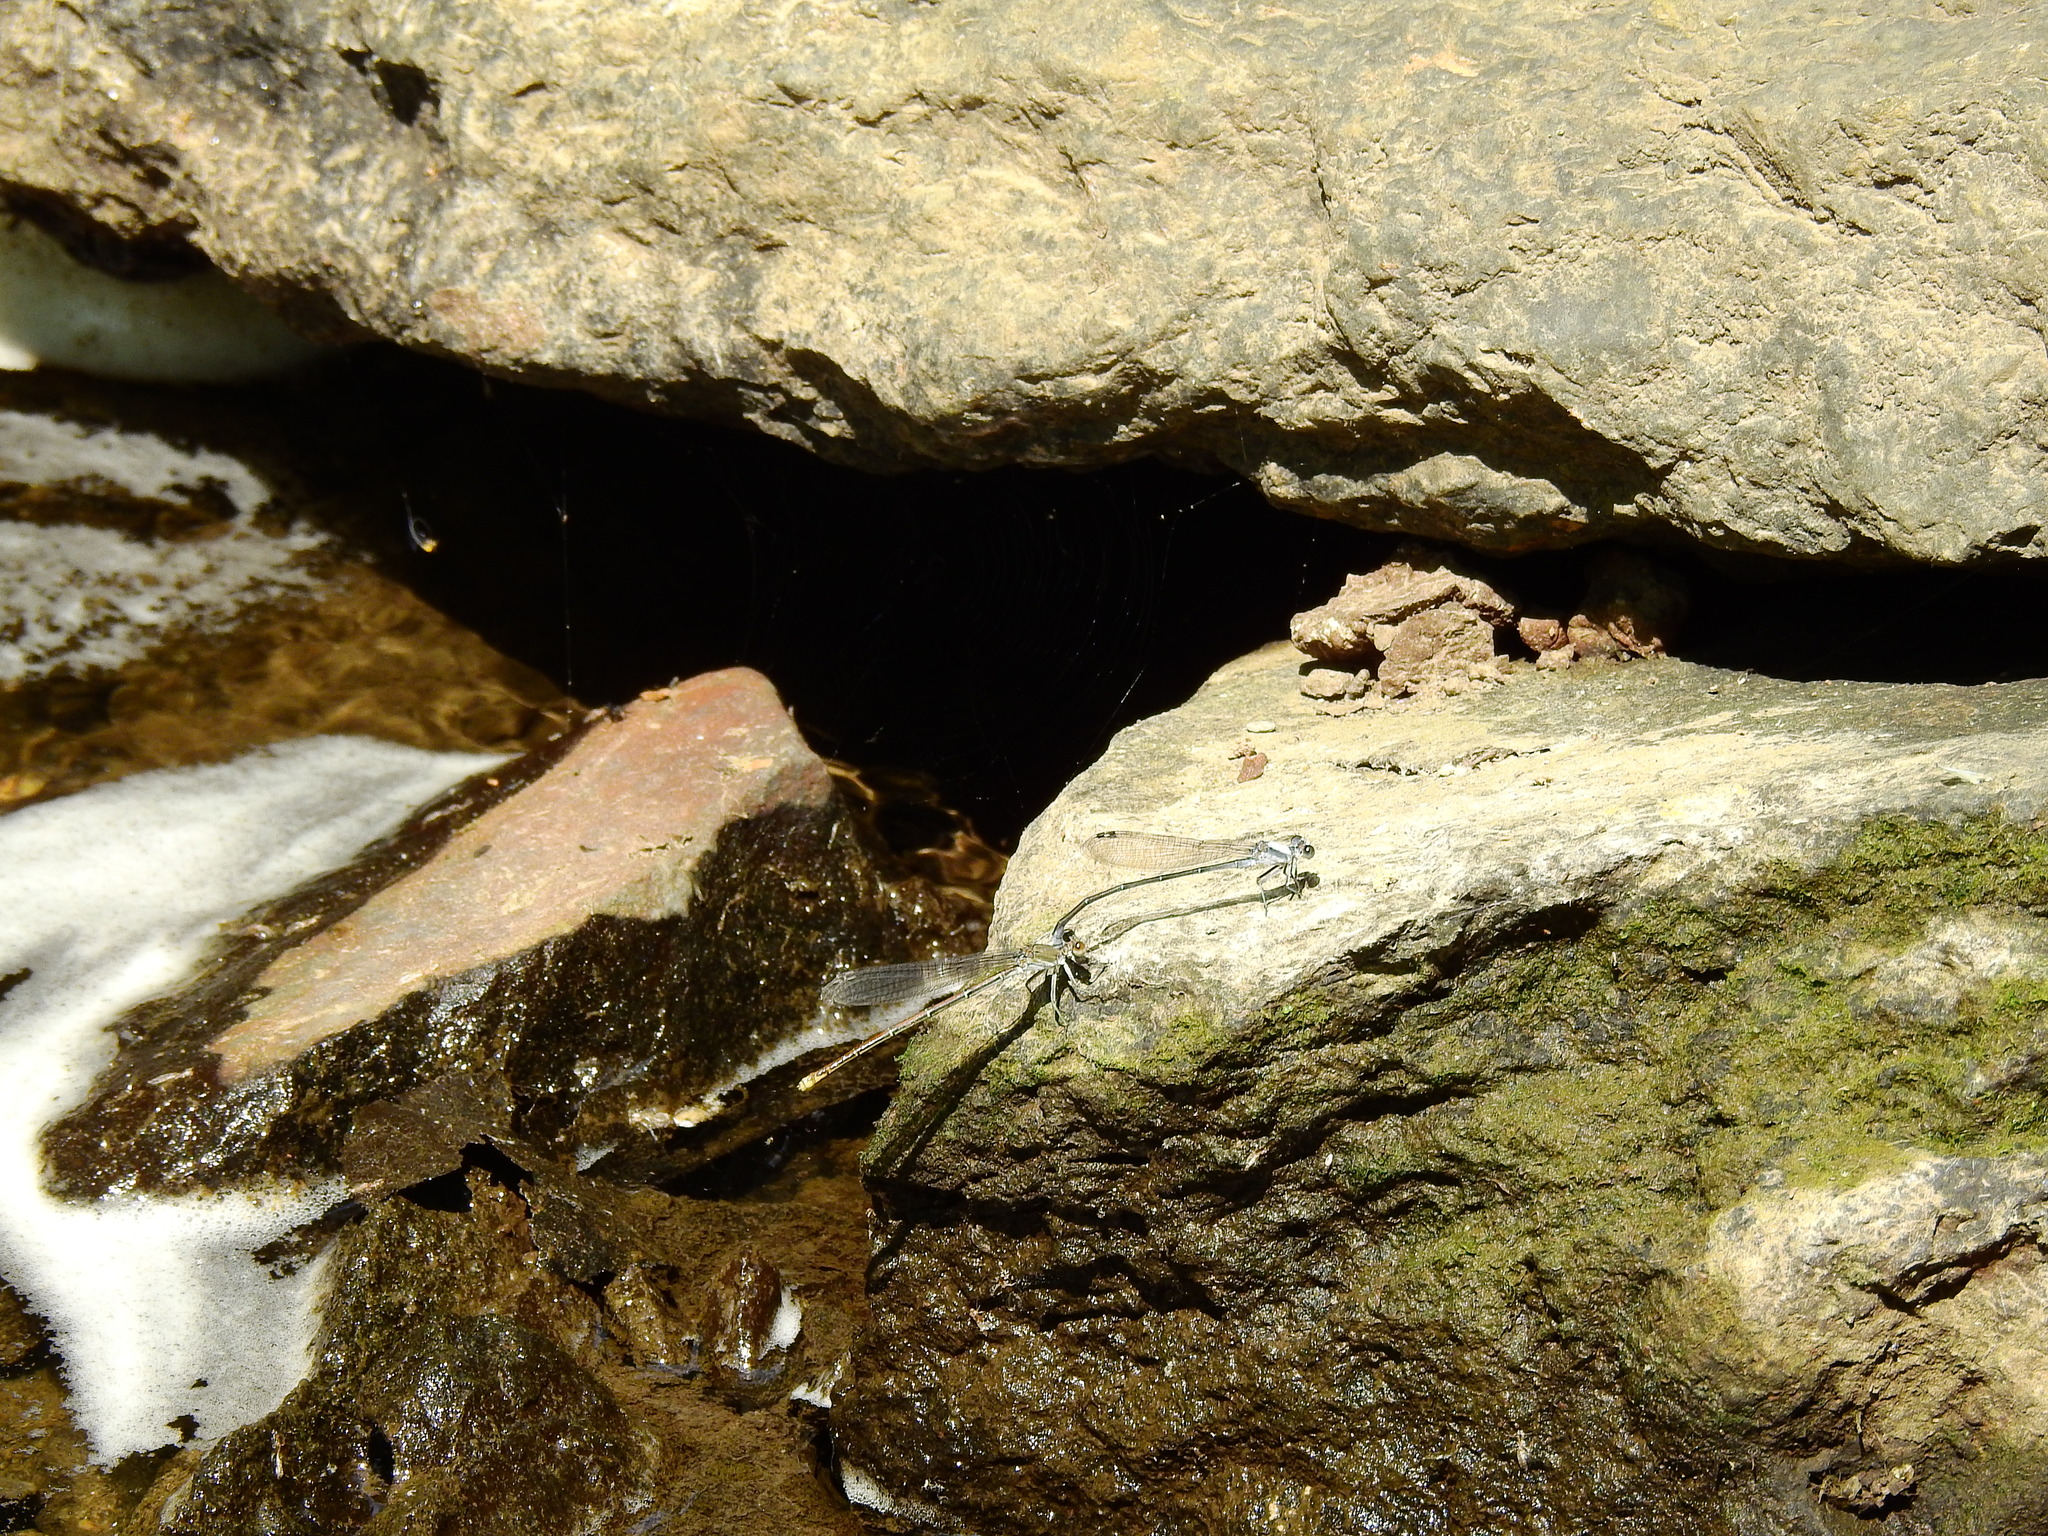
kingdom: Animalia
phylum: Arthropoda
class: Insecta
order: Odonata
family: Coenagrionidae
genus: Argia
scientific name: Argia moesta
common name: Powdered dancer
